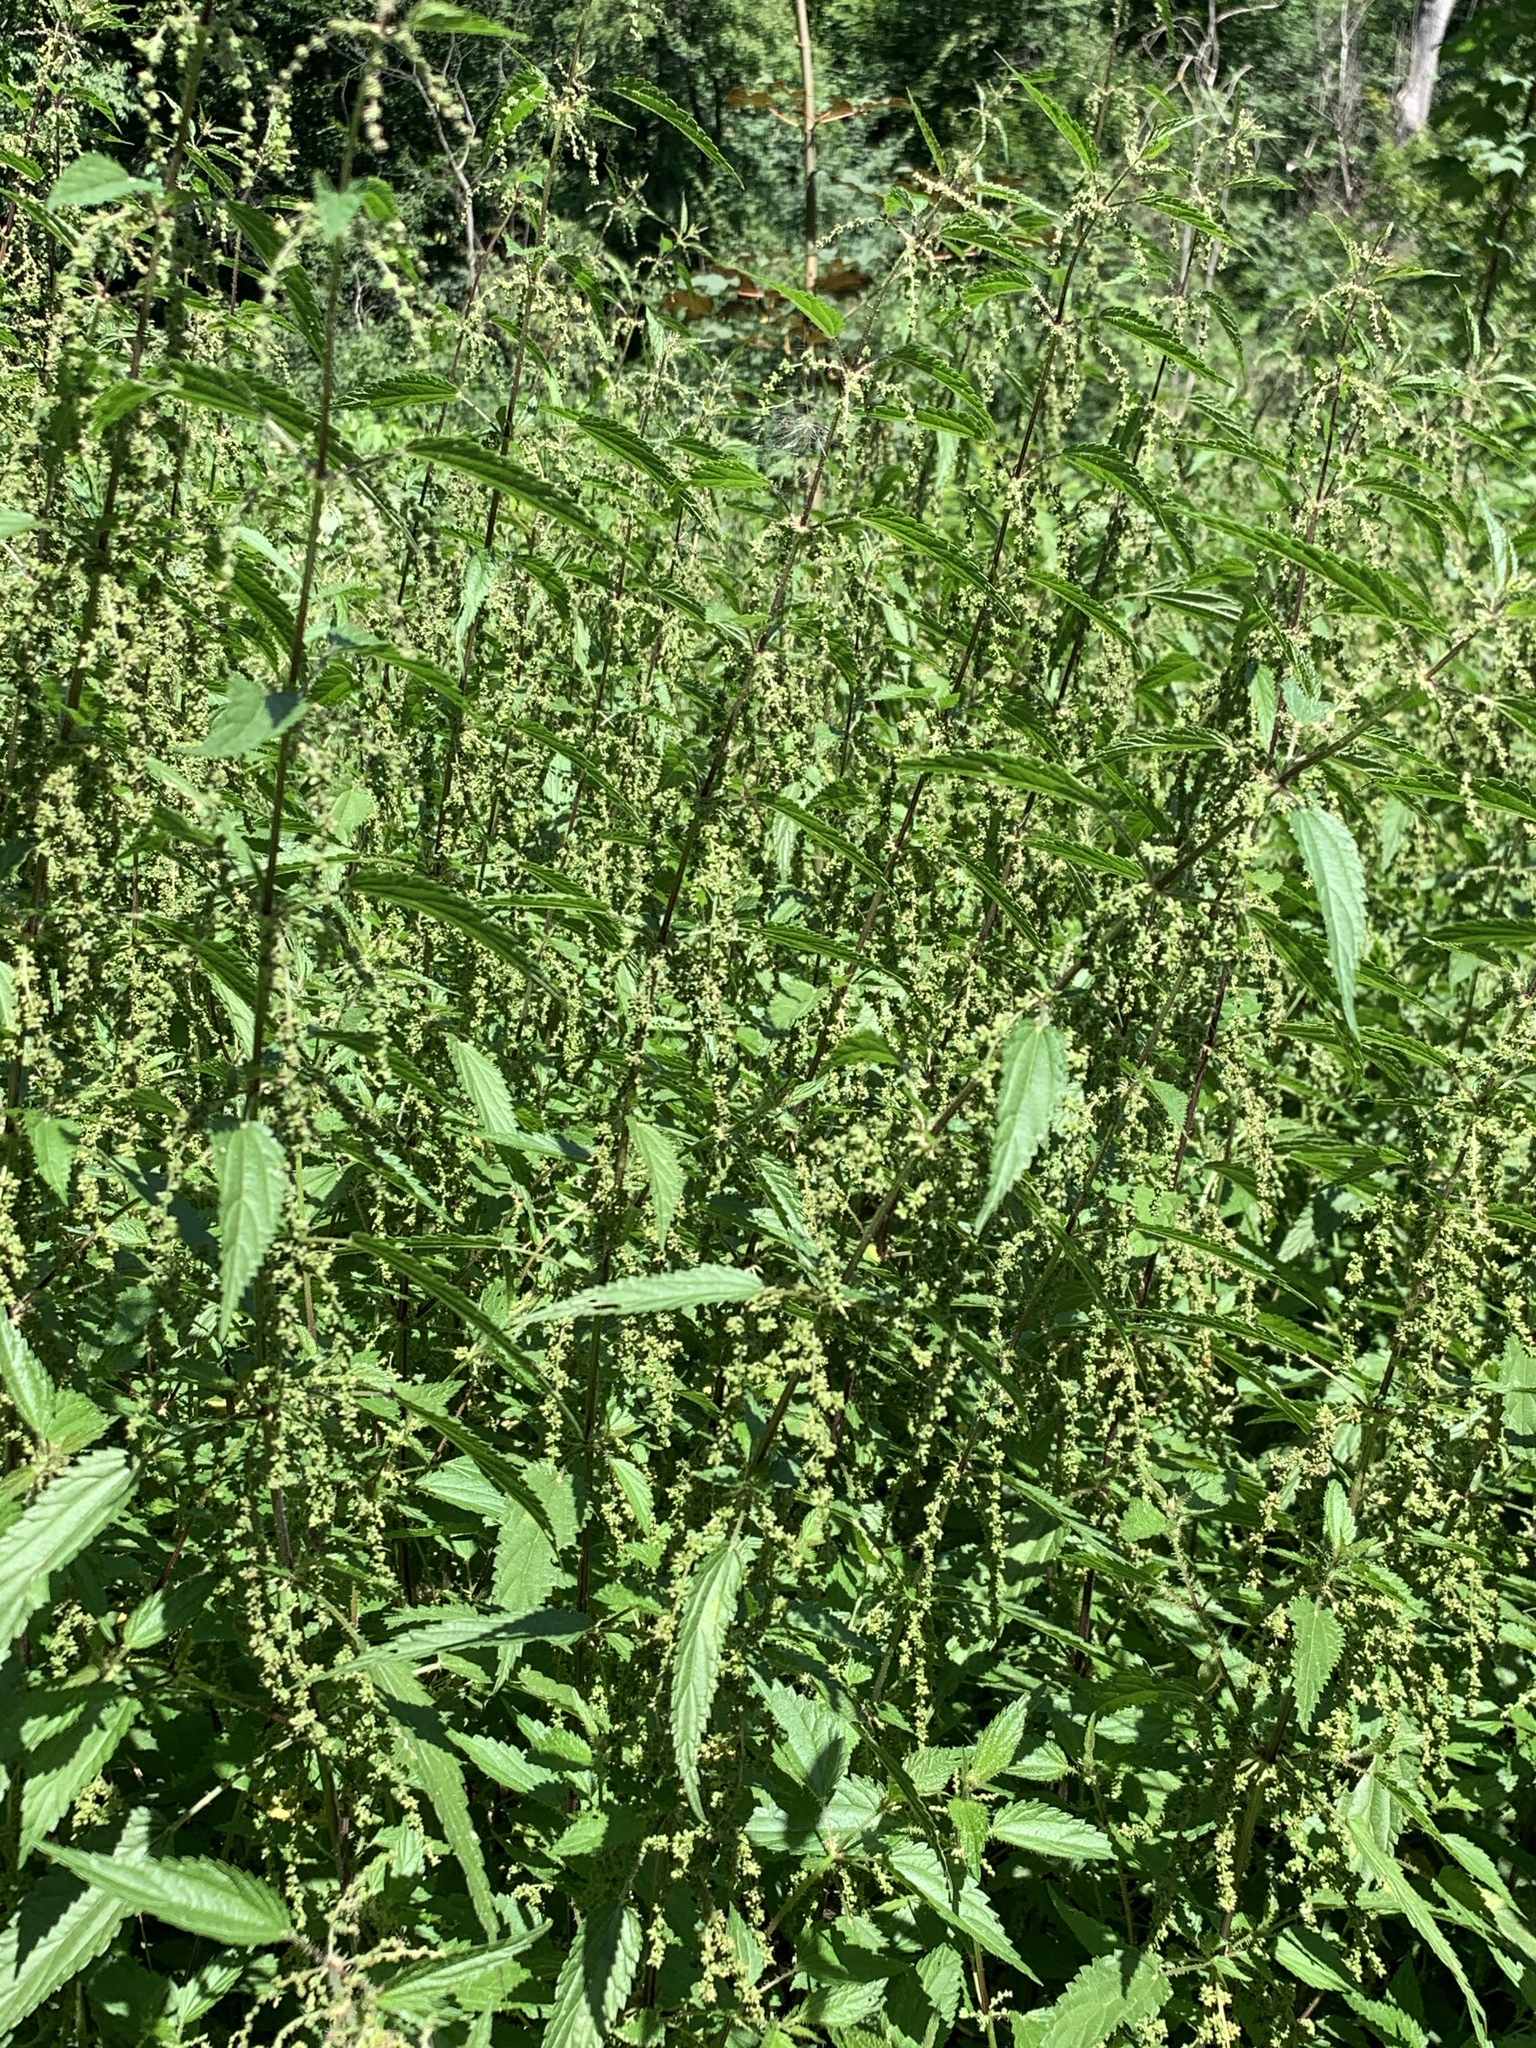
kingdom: Plantae
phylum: Tracheophyta
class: Magnoliopsida
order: Rosales
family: Urticaceae
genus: Urtica
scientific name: Urtica dioica
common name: Common nettle
